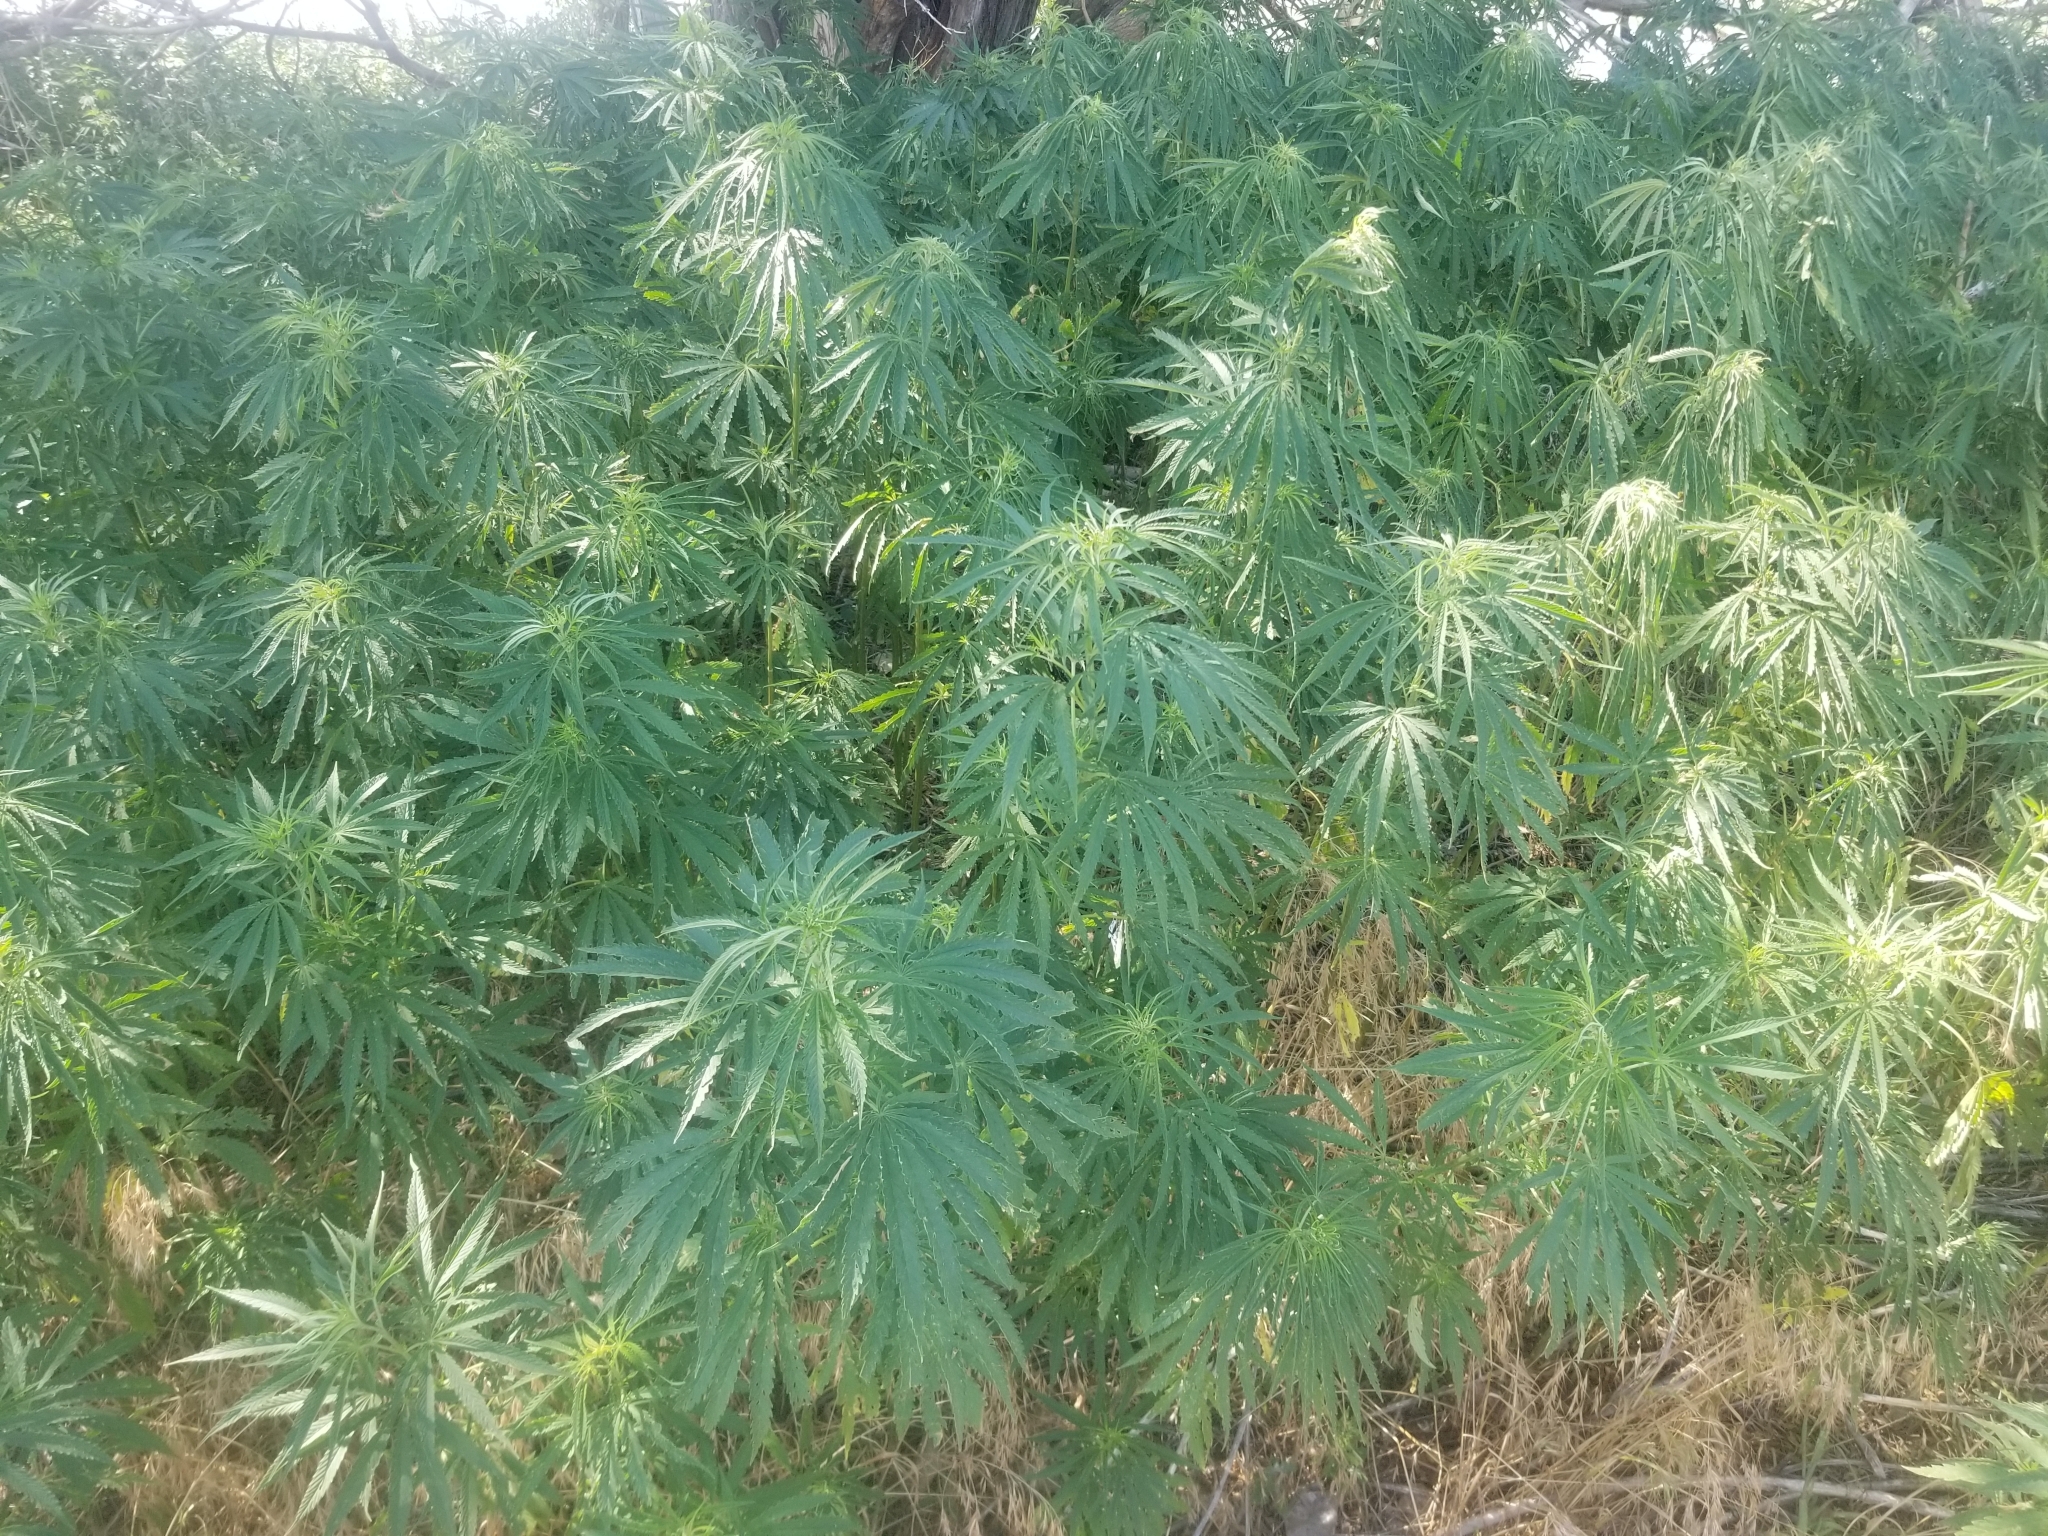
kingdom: Plantae
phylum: Tracheophyta
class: Magnoliopsida
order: Rosales
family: Cannabaceae
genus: Cannabis
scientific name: Cannabis sativa
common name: Hemp
